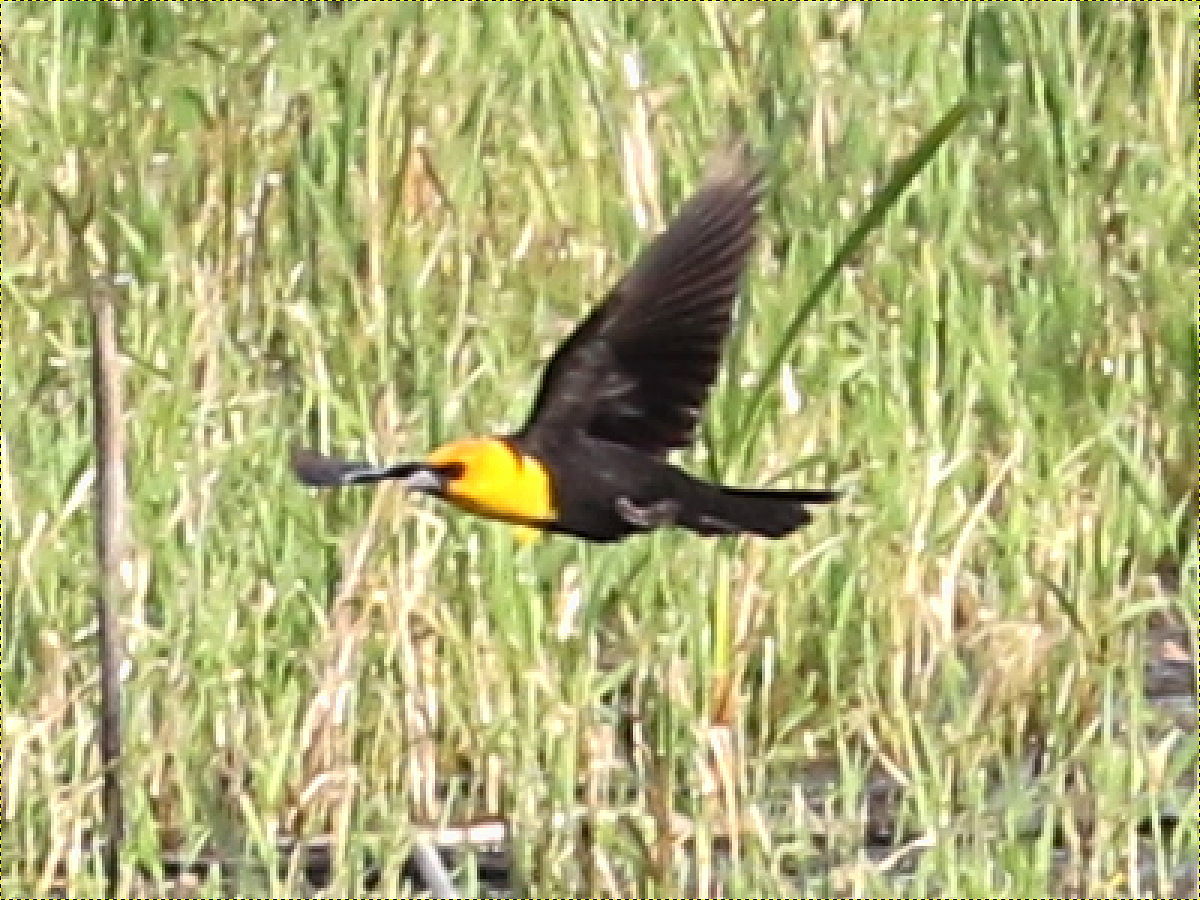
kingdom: Animalia
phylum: Chordata
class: Aves
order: Passeriformes
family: Icteridae
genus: Xanthocephalus
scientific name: Xanthocephalus xanthocephalus
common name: Yellow-headed blackbird
